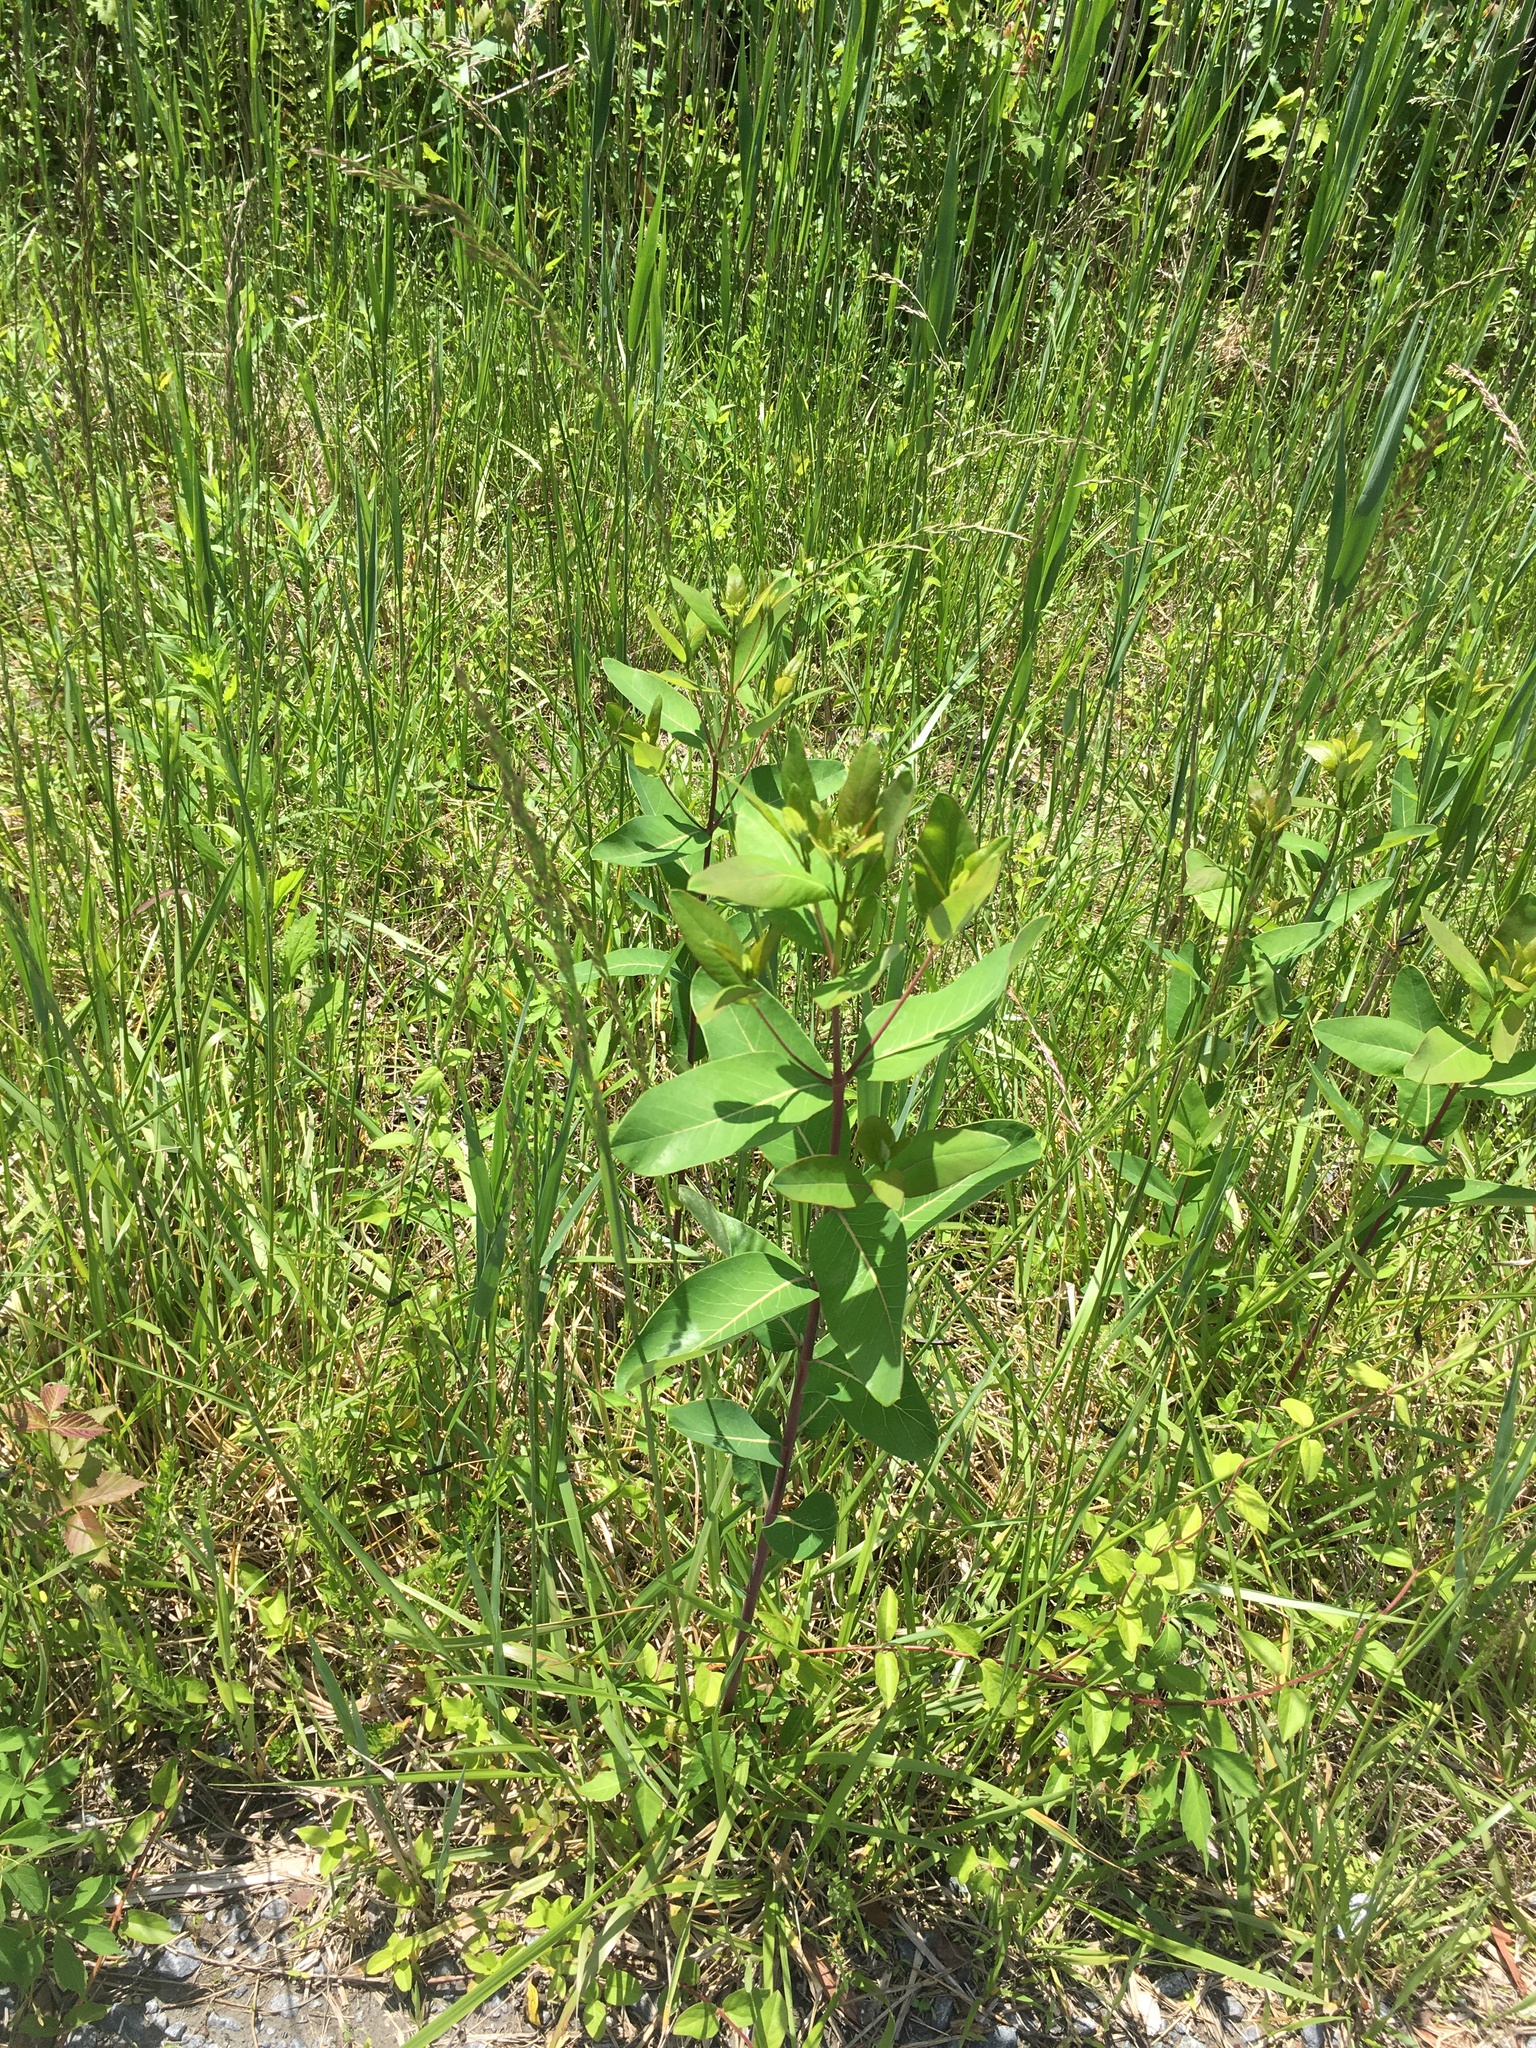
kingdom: Plantae
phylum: Tracheophyta
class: Magnoliopsida
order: Gentianales
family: Apocynaceae
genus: Apocynum
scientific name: Apocynum cannabinum
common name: Hemp dogbane
